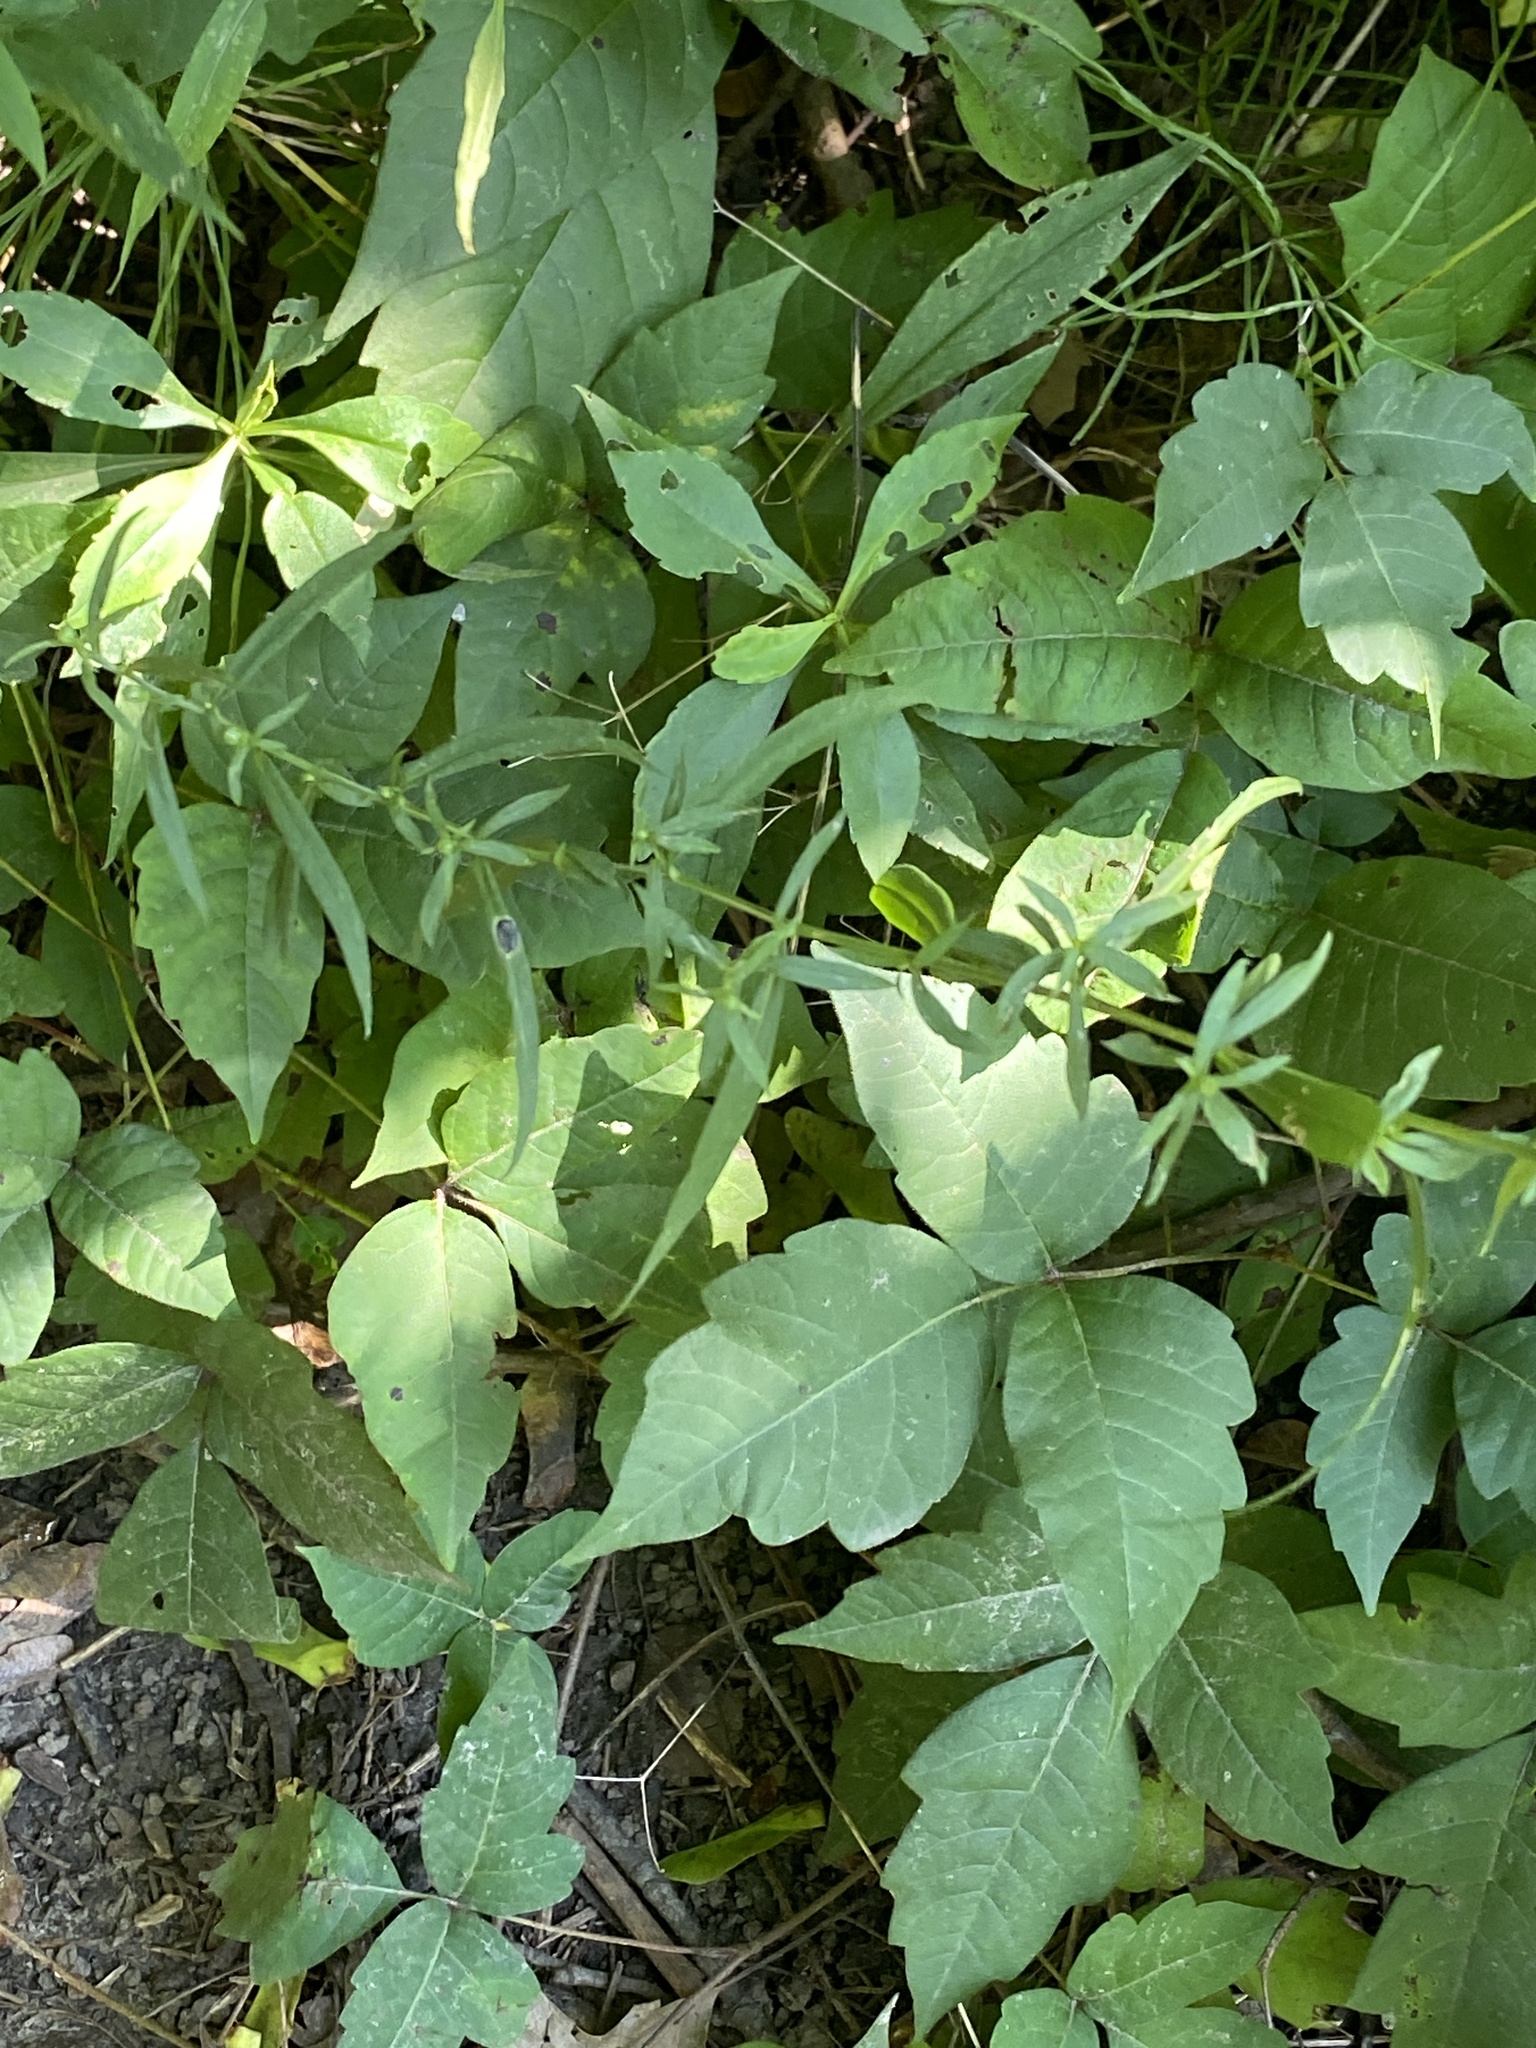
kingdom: Animalia
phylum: Arthropoda
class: Insecta
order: Lepidoptera
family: Gracillariidae
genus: Cameraria
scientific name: Cameraria guttifinitella
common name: Poison ivy leaf-miner moth
